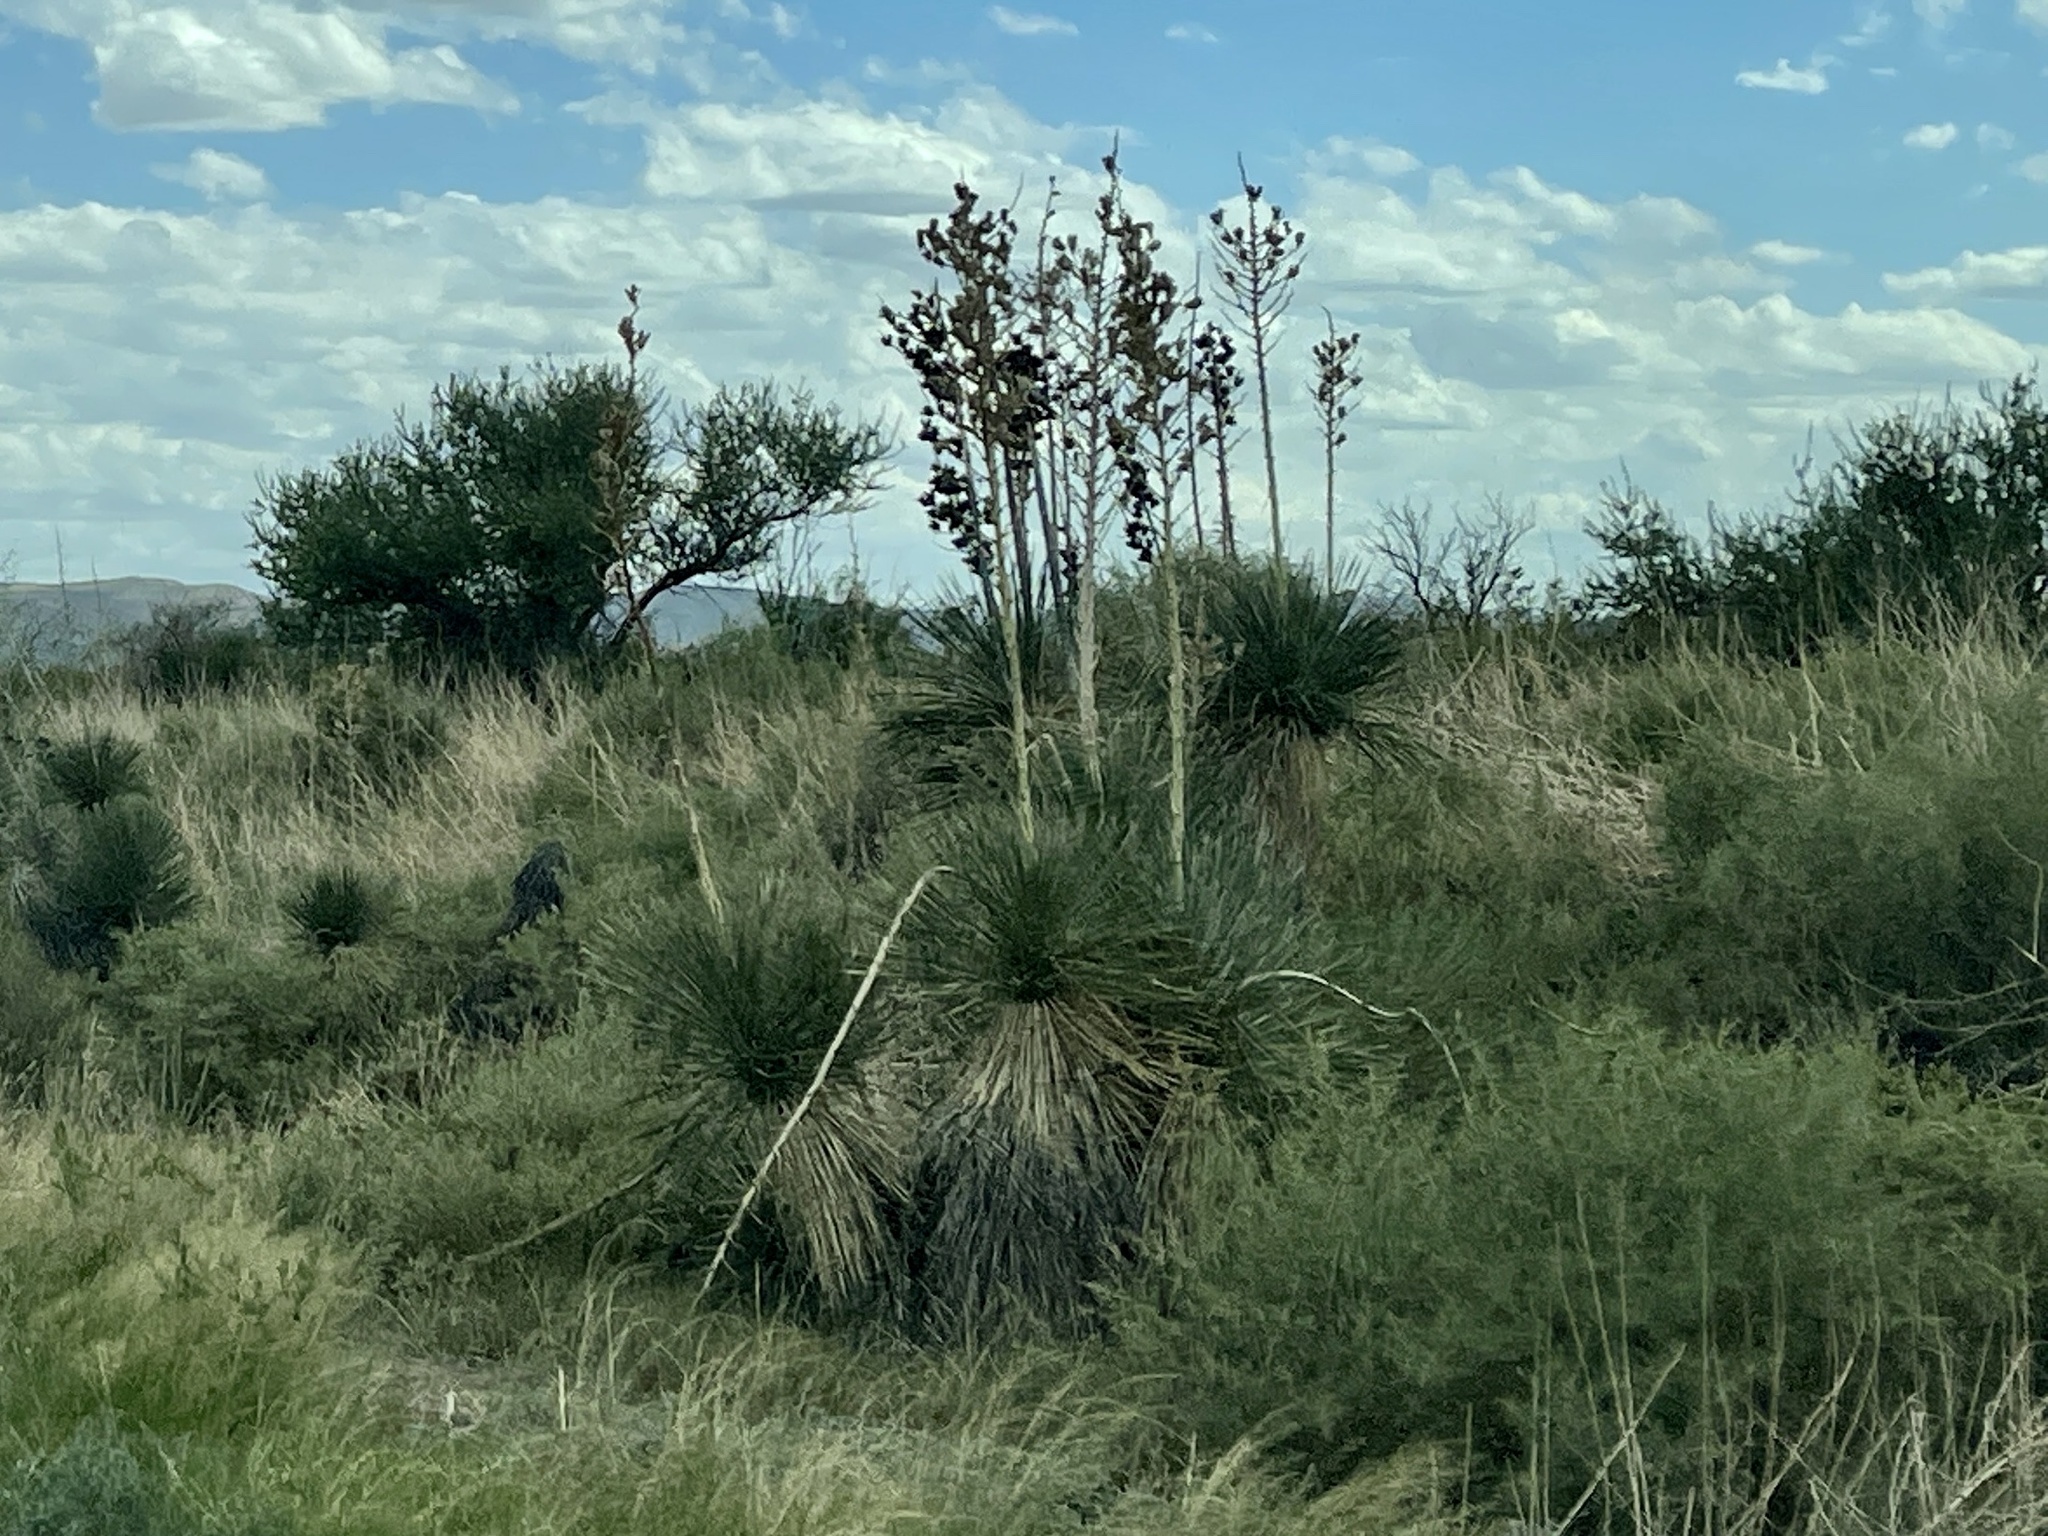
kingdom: Plantae
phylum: Tracheophyta
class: Liliopsida
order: Asparagales
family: Asparagaceae
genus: Yucca
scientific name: Yucca elata
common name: Palmella
